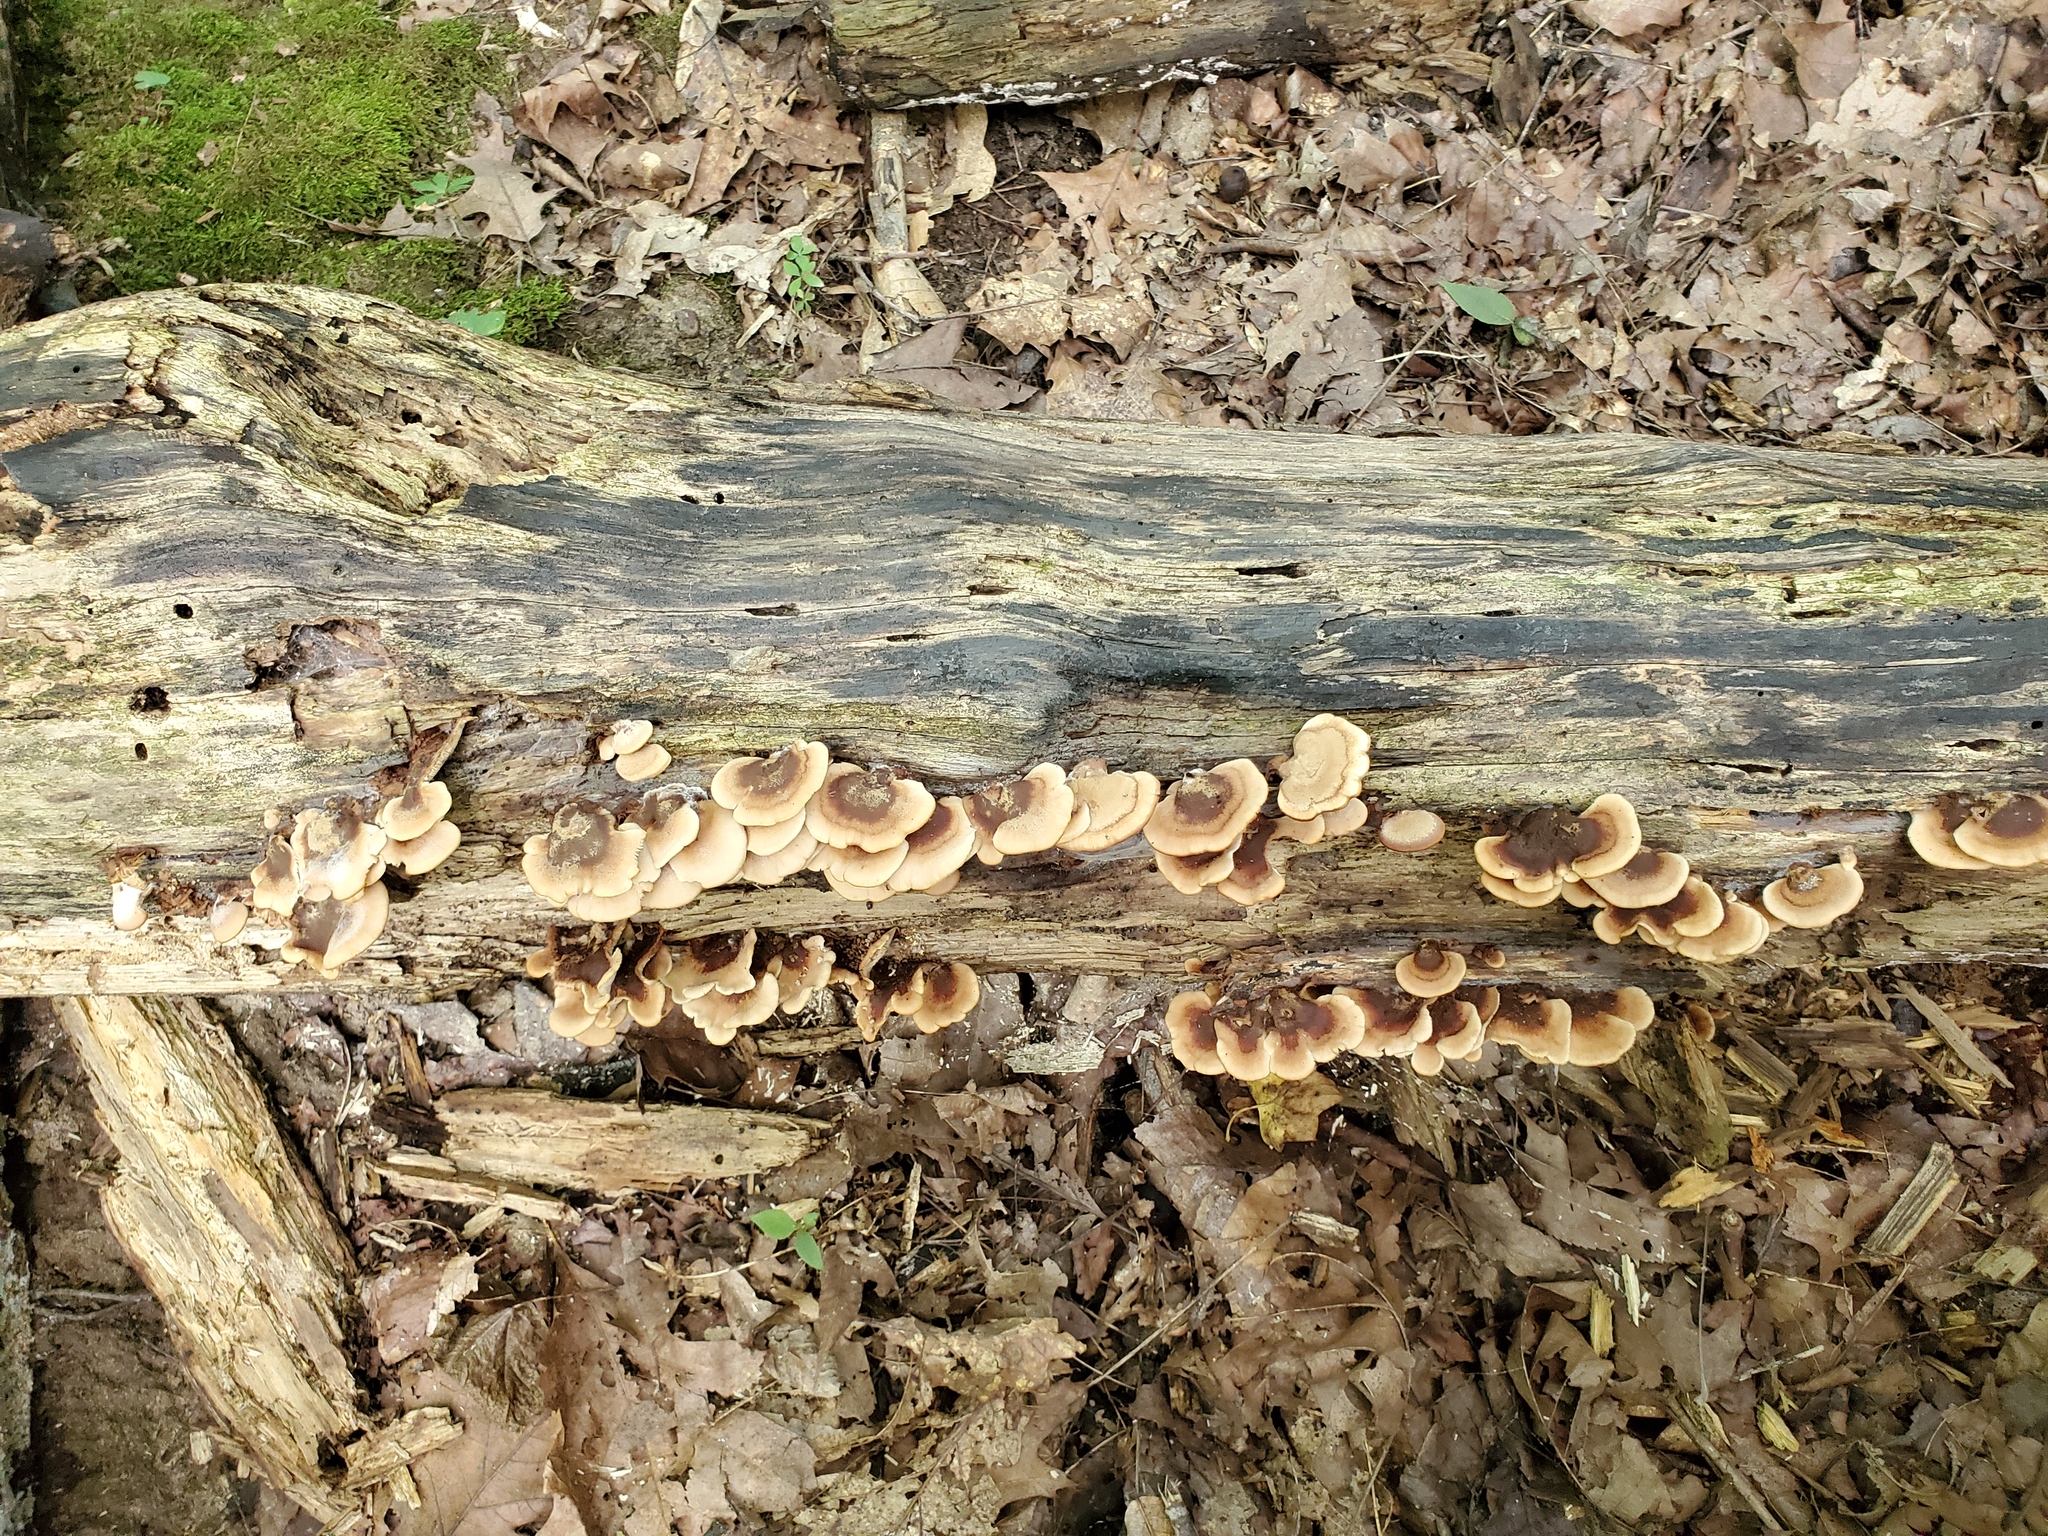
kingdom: Fungi
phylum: Basidiomycota
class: Agaricomycetes
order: Russulales
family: Auriscalpiaceae
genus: Lentinellus
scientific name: Lentinellus castoreus
